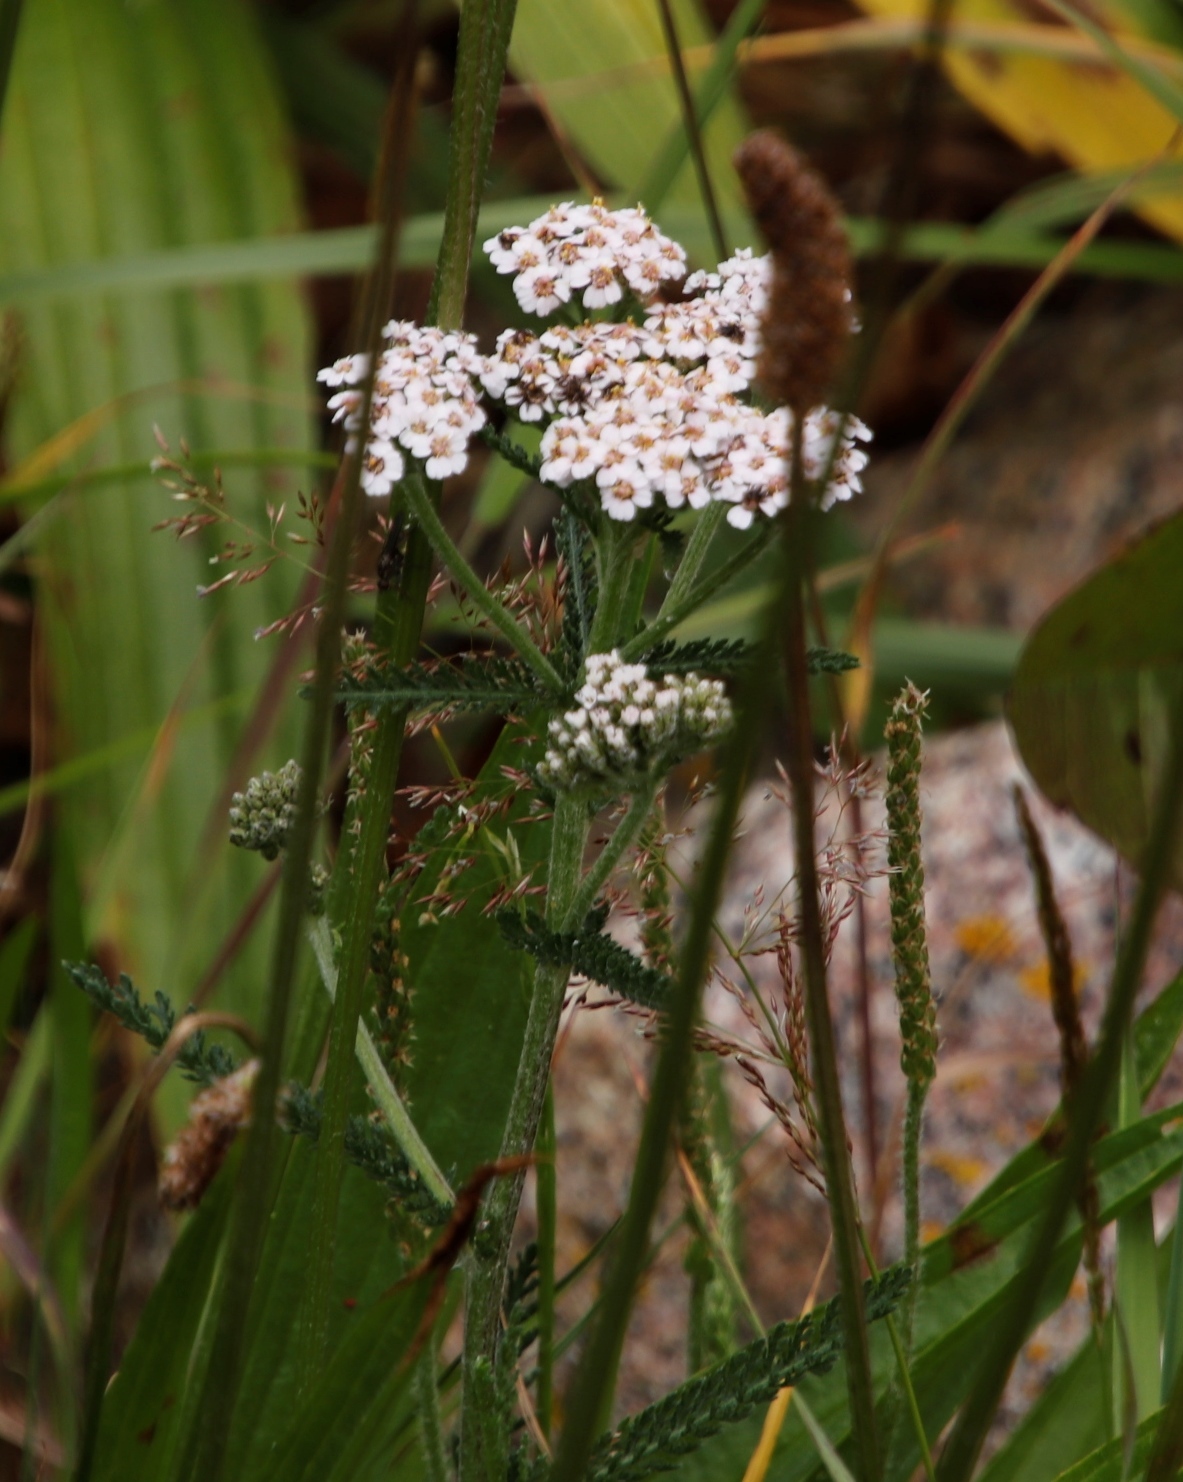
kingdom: Plantae
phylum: Tracheophyta
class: Magnoliopsida
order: Asterales
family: Asteraceae
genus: Achillea
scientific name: Achillea millefolium
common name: Yarrow
